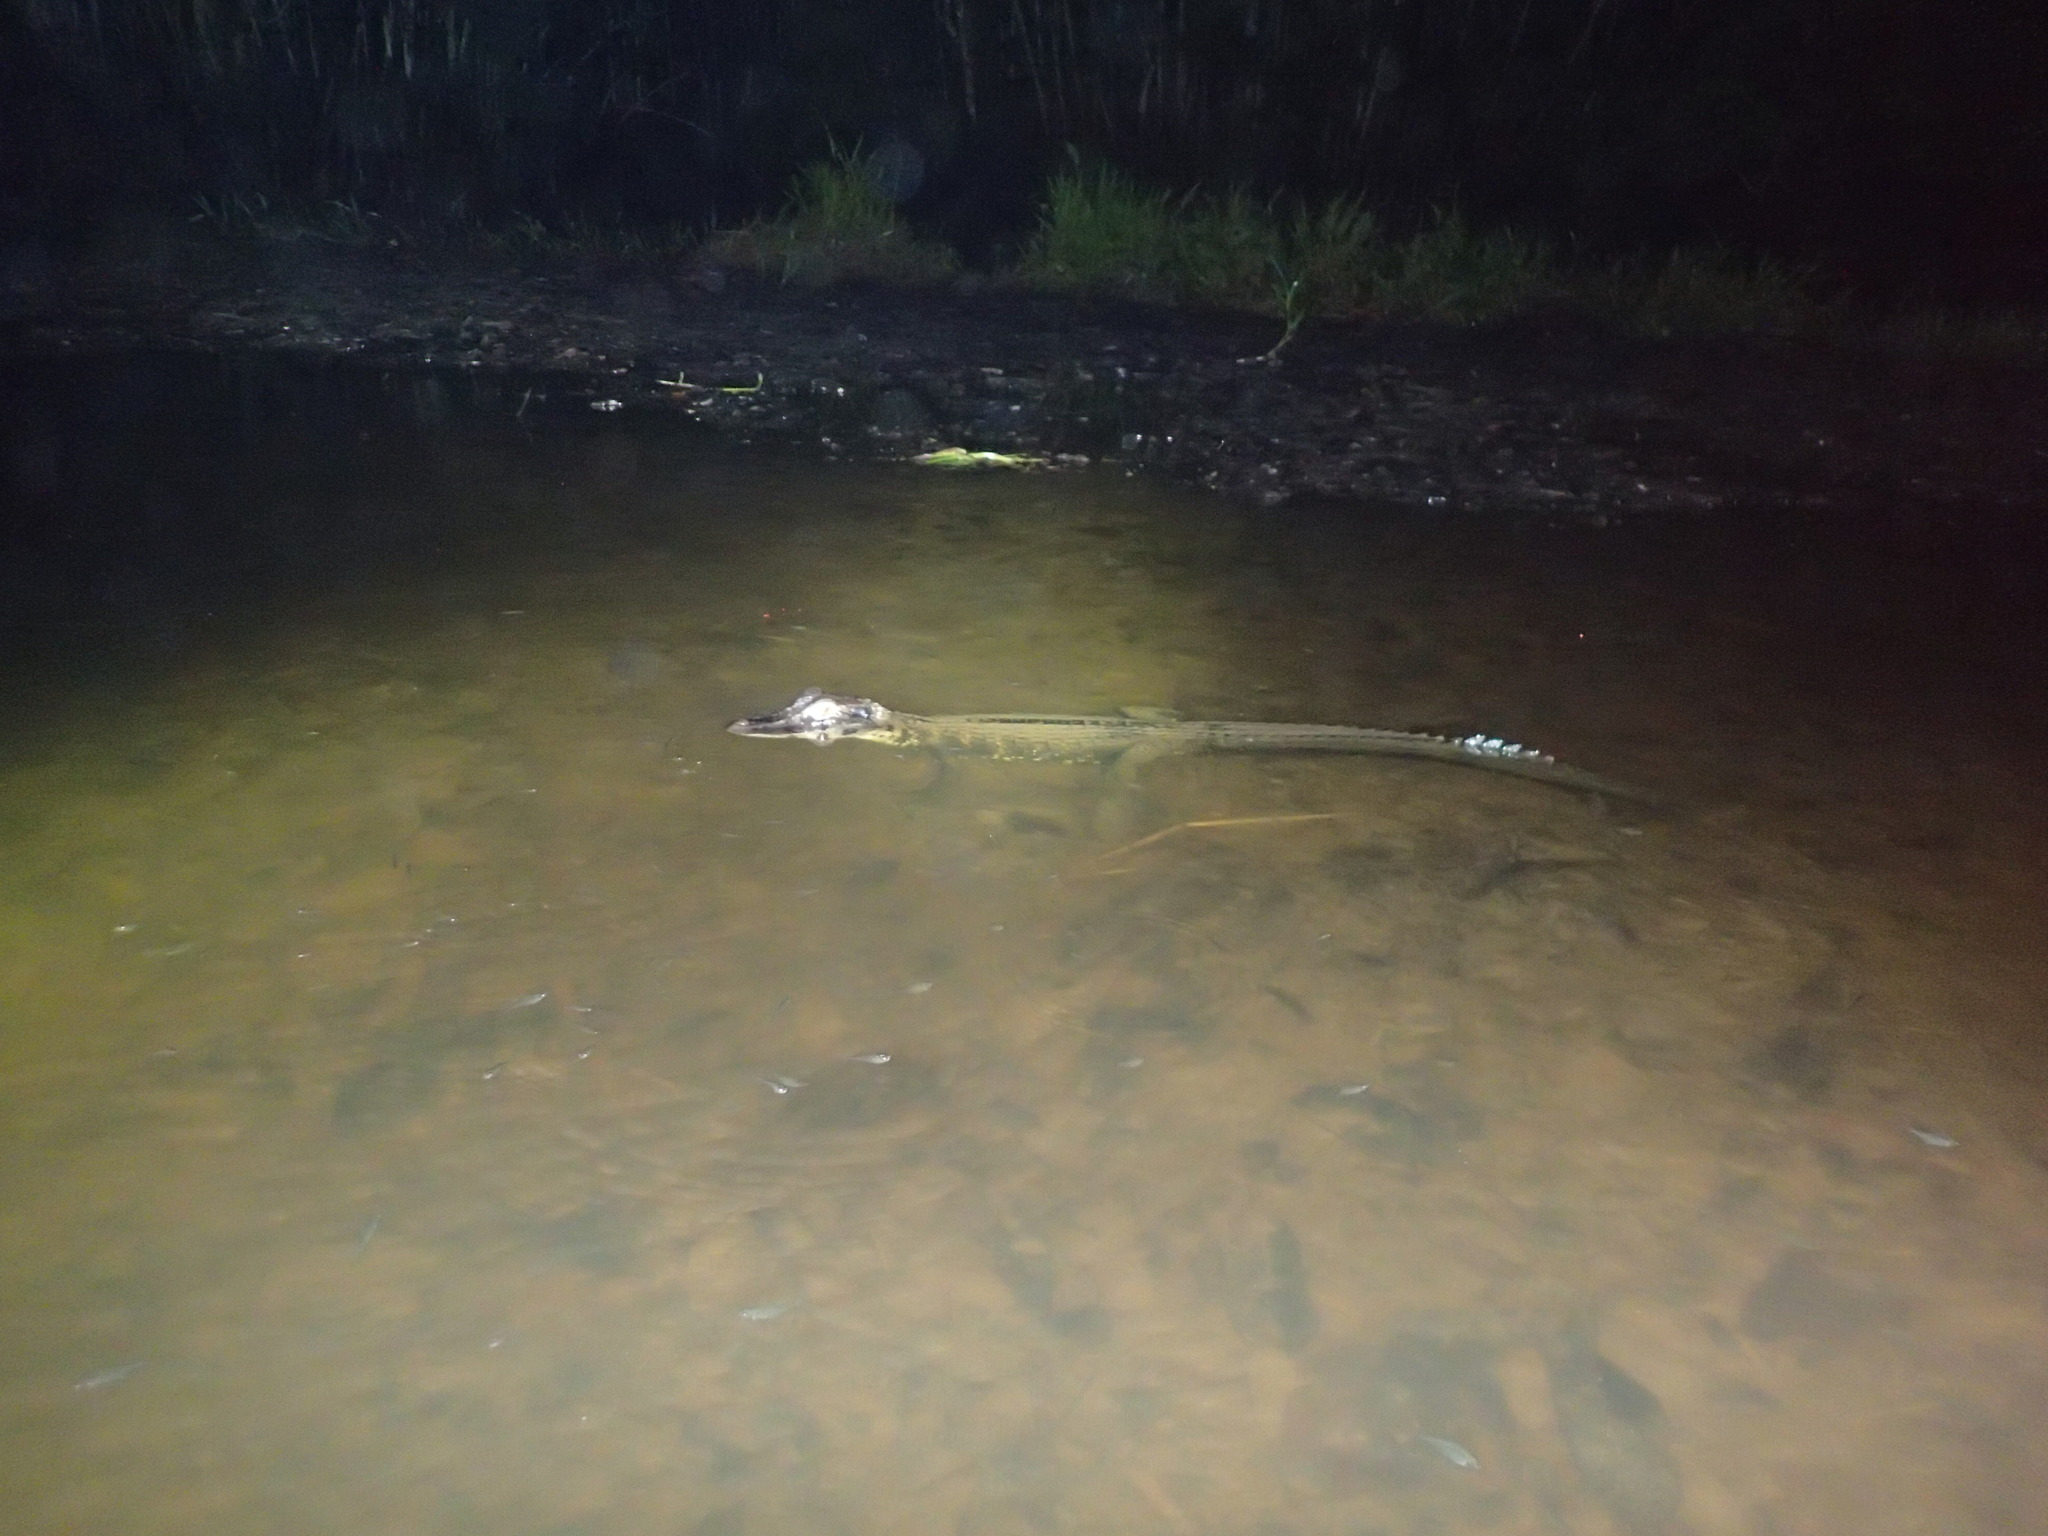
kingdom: Animalia
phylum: Chordata
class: Crocodylia
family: Alligatoridae
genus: Melanosuchus
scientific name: Melanosuchus niger
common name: Black caiman
